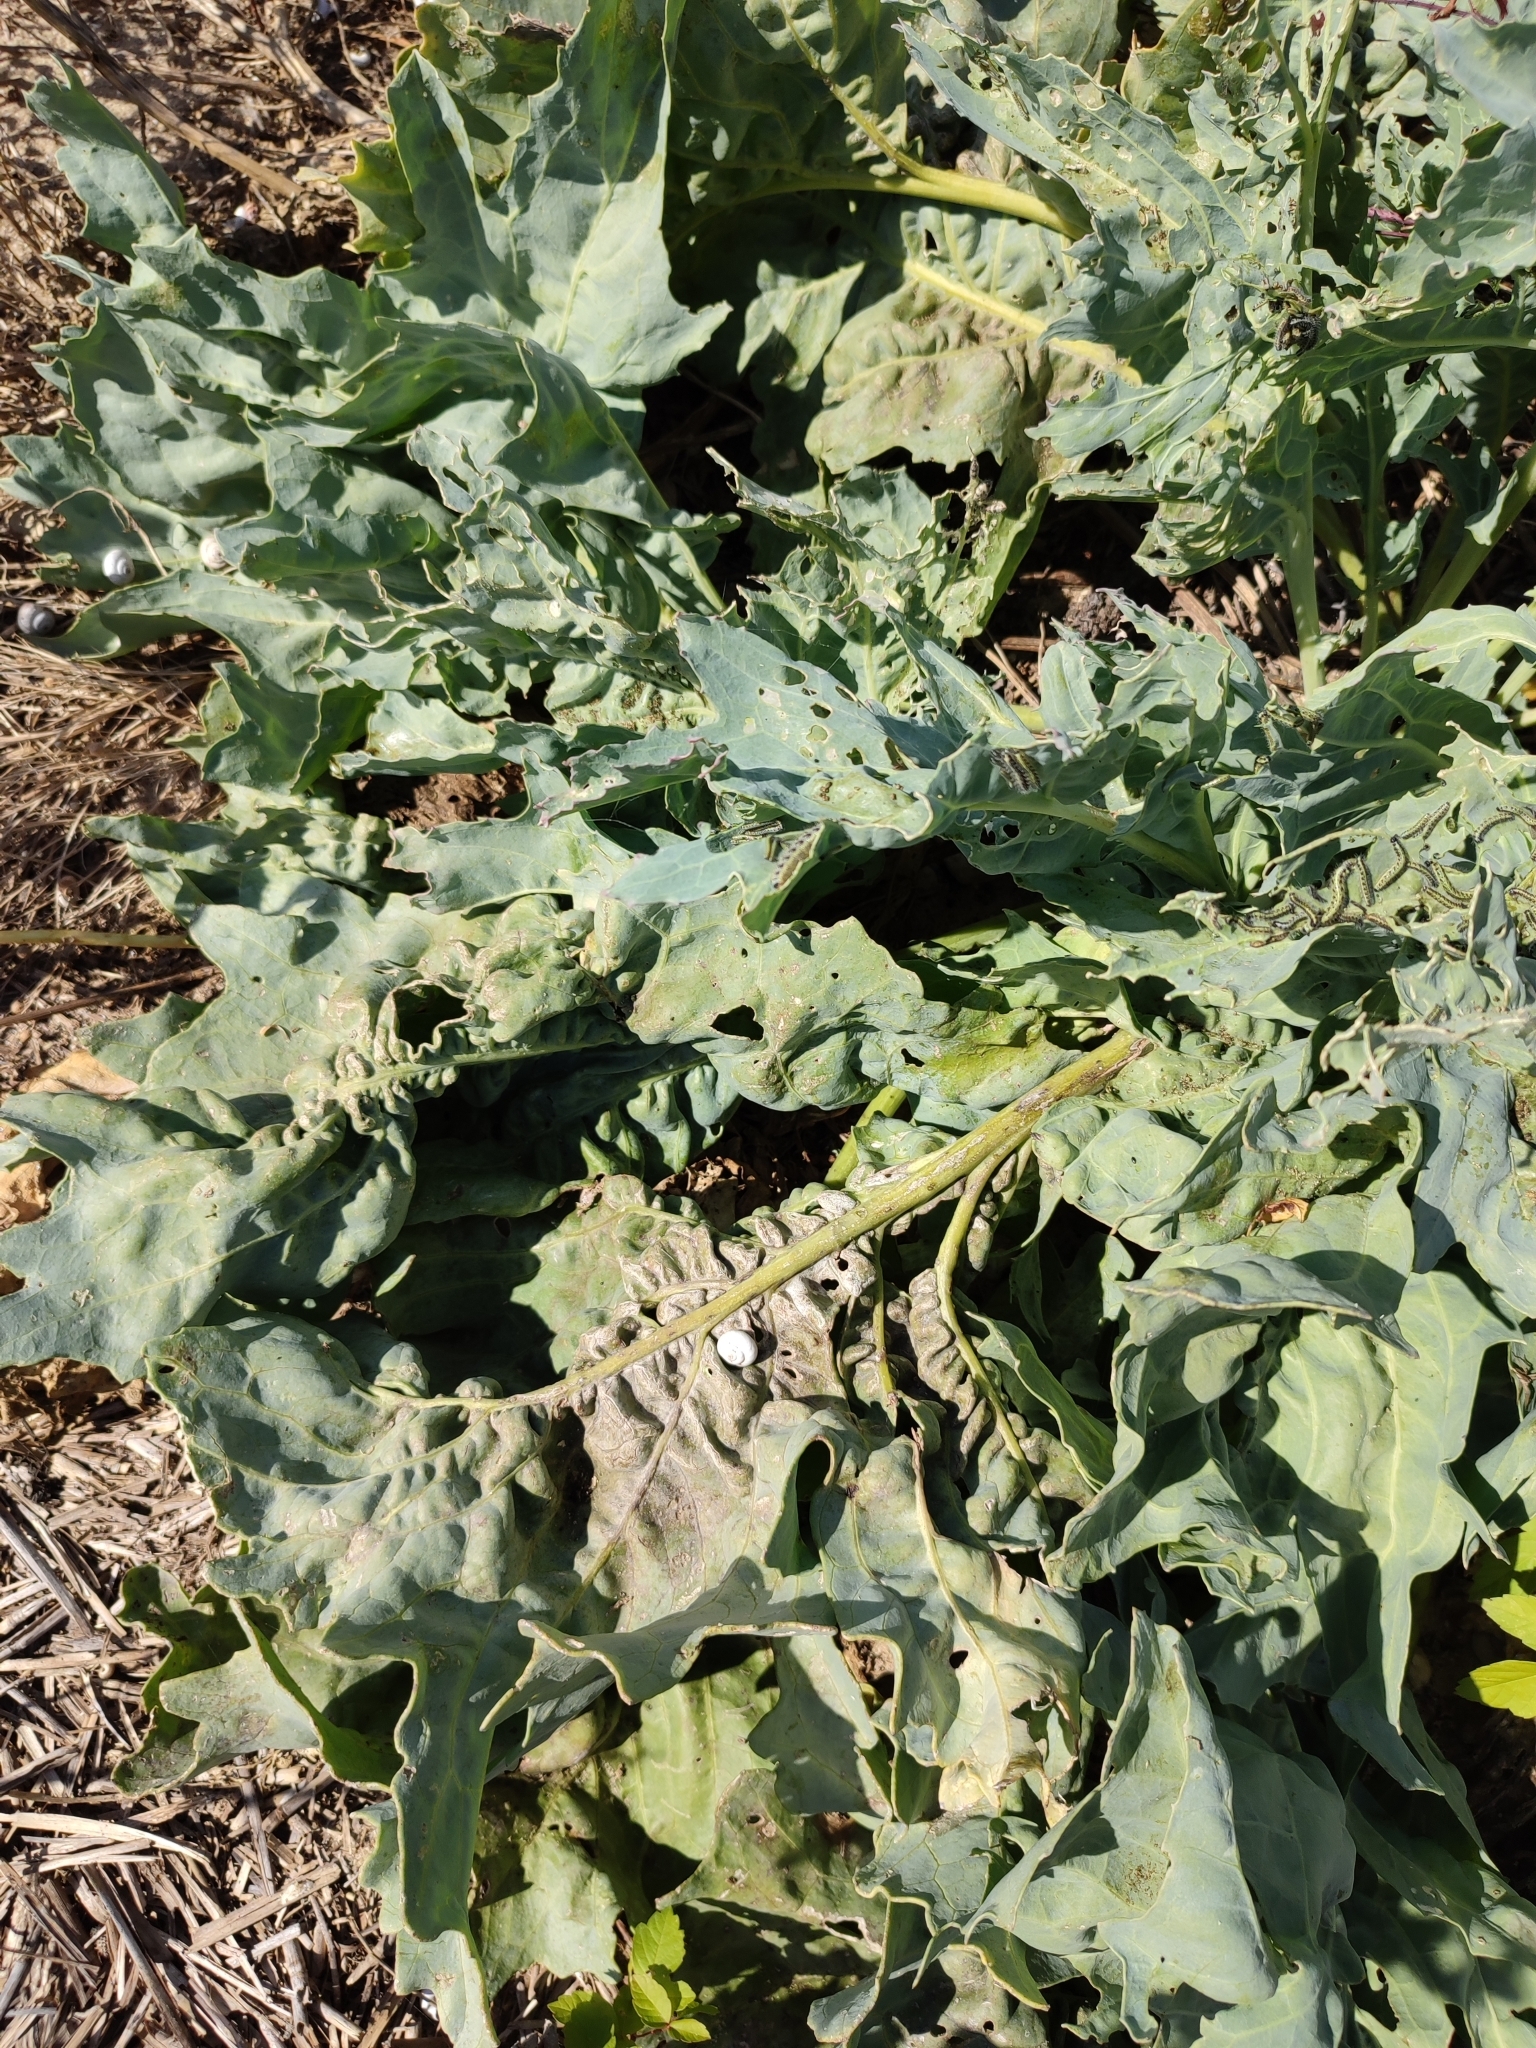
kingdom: Plantae
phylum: Tracheophyta
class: Magnoliopsida
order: Brassicales
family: Brassicaceae
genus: Crambe
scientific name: Crambe maritima
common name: Sea-kale
